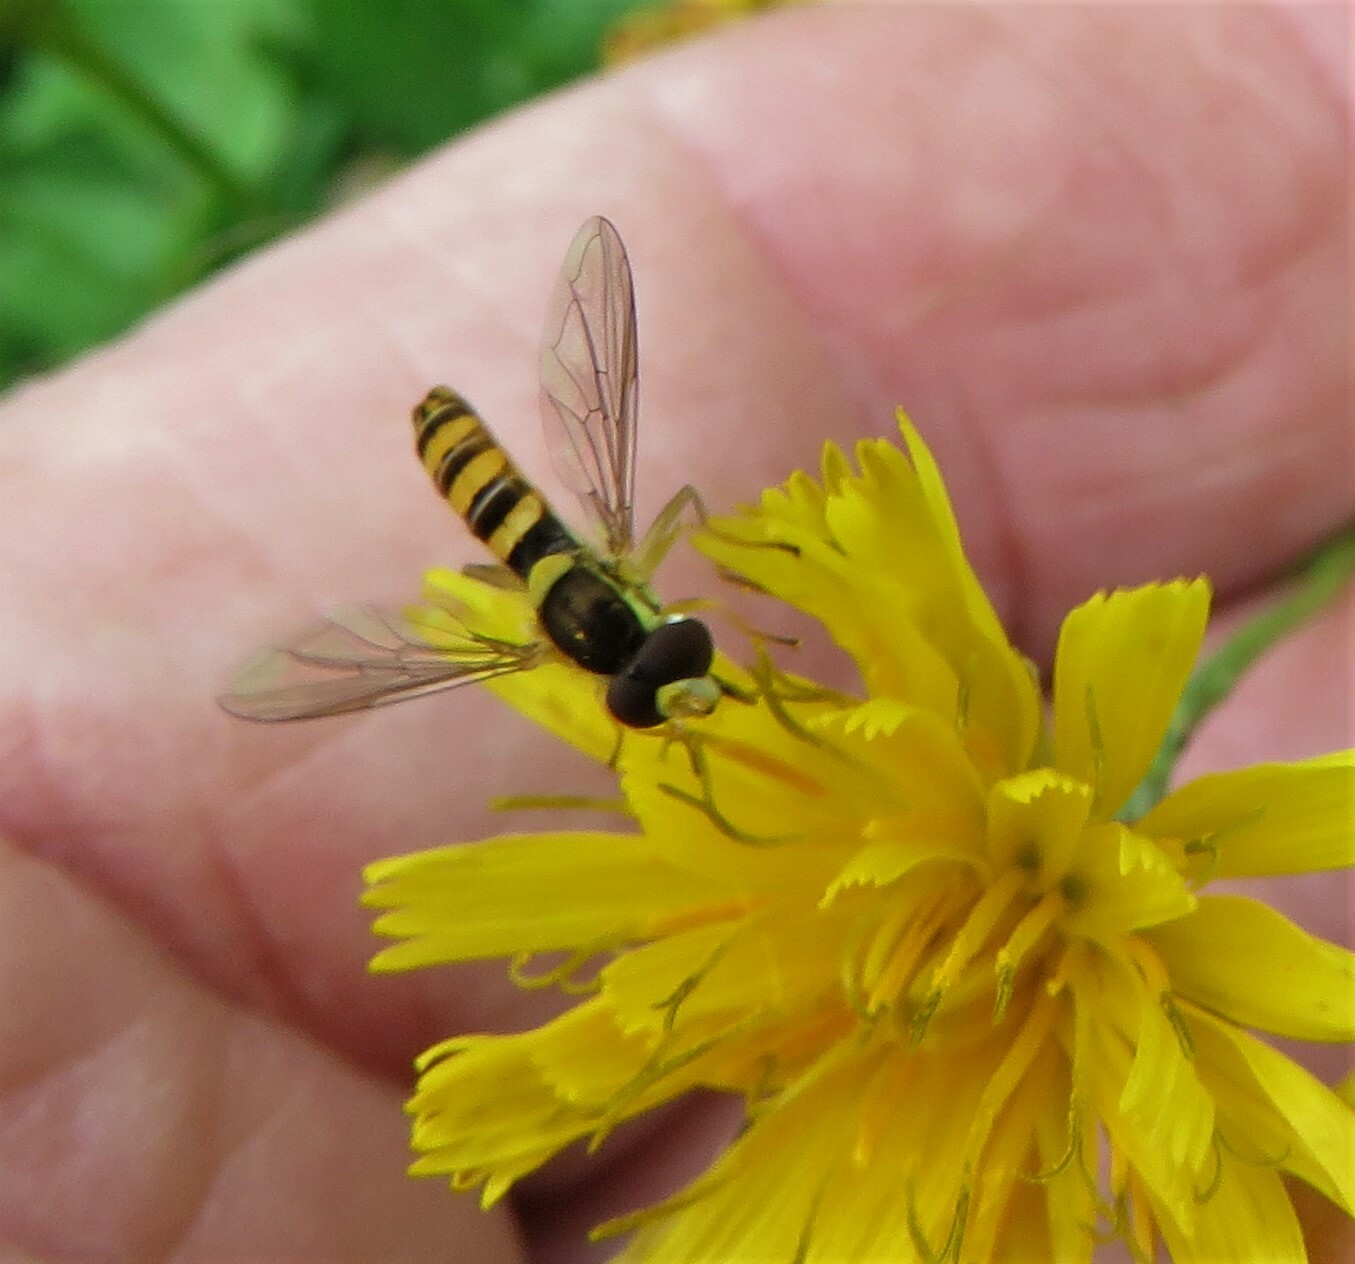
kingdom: Animalia
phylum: Arthropoda
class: Insecta
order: Diptera
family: Syrphidae
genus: Sphaerophoria
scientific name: Sphaerophoria philantha
